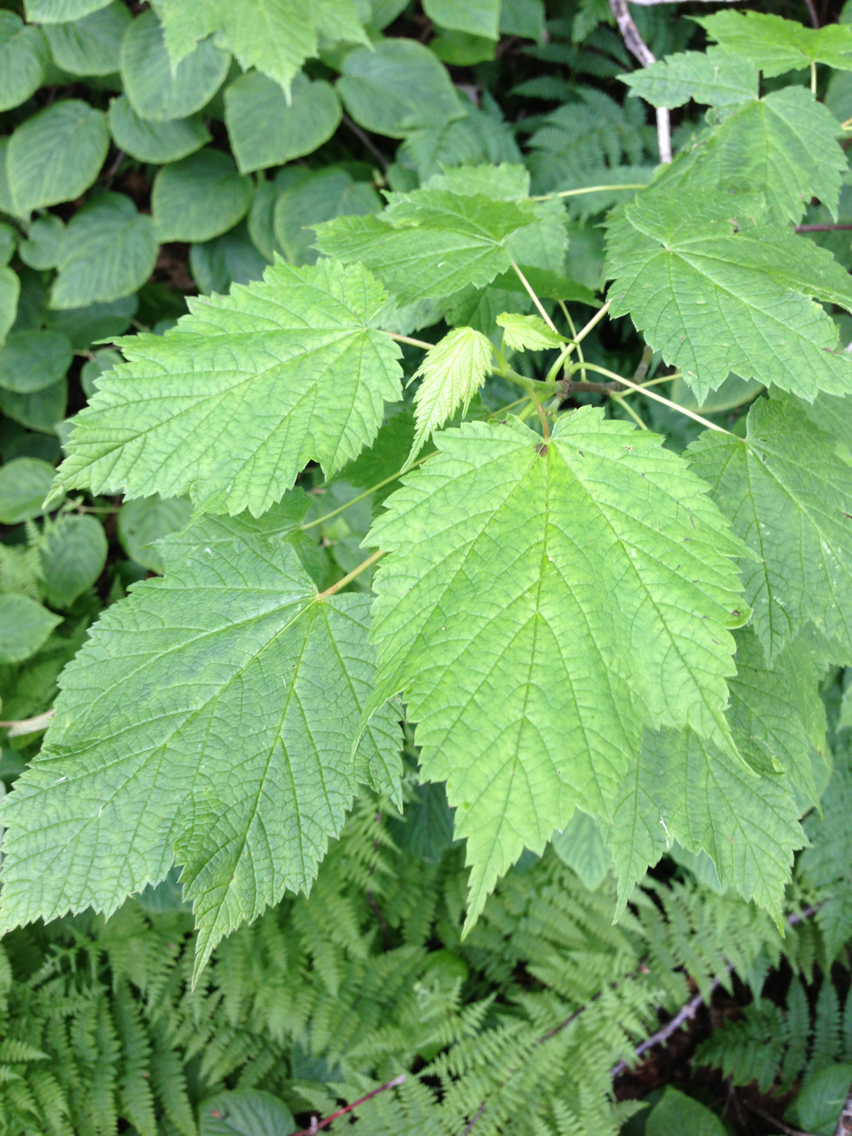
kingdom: Plantae
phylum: Tracheophyta
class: Magnoliopsida
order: Sapindales
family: Sapindaceae
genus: Acer
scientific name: Acer spicatum
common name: Mountain maple
